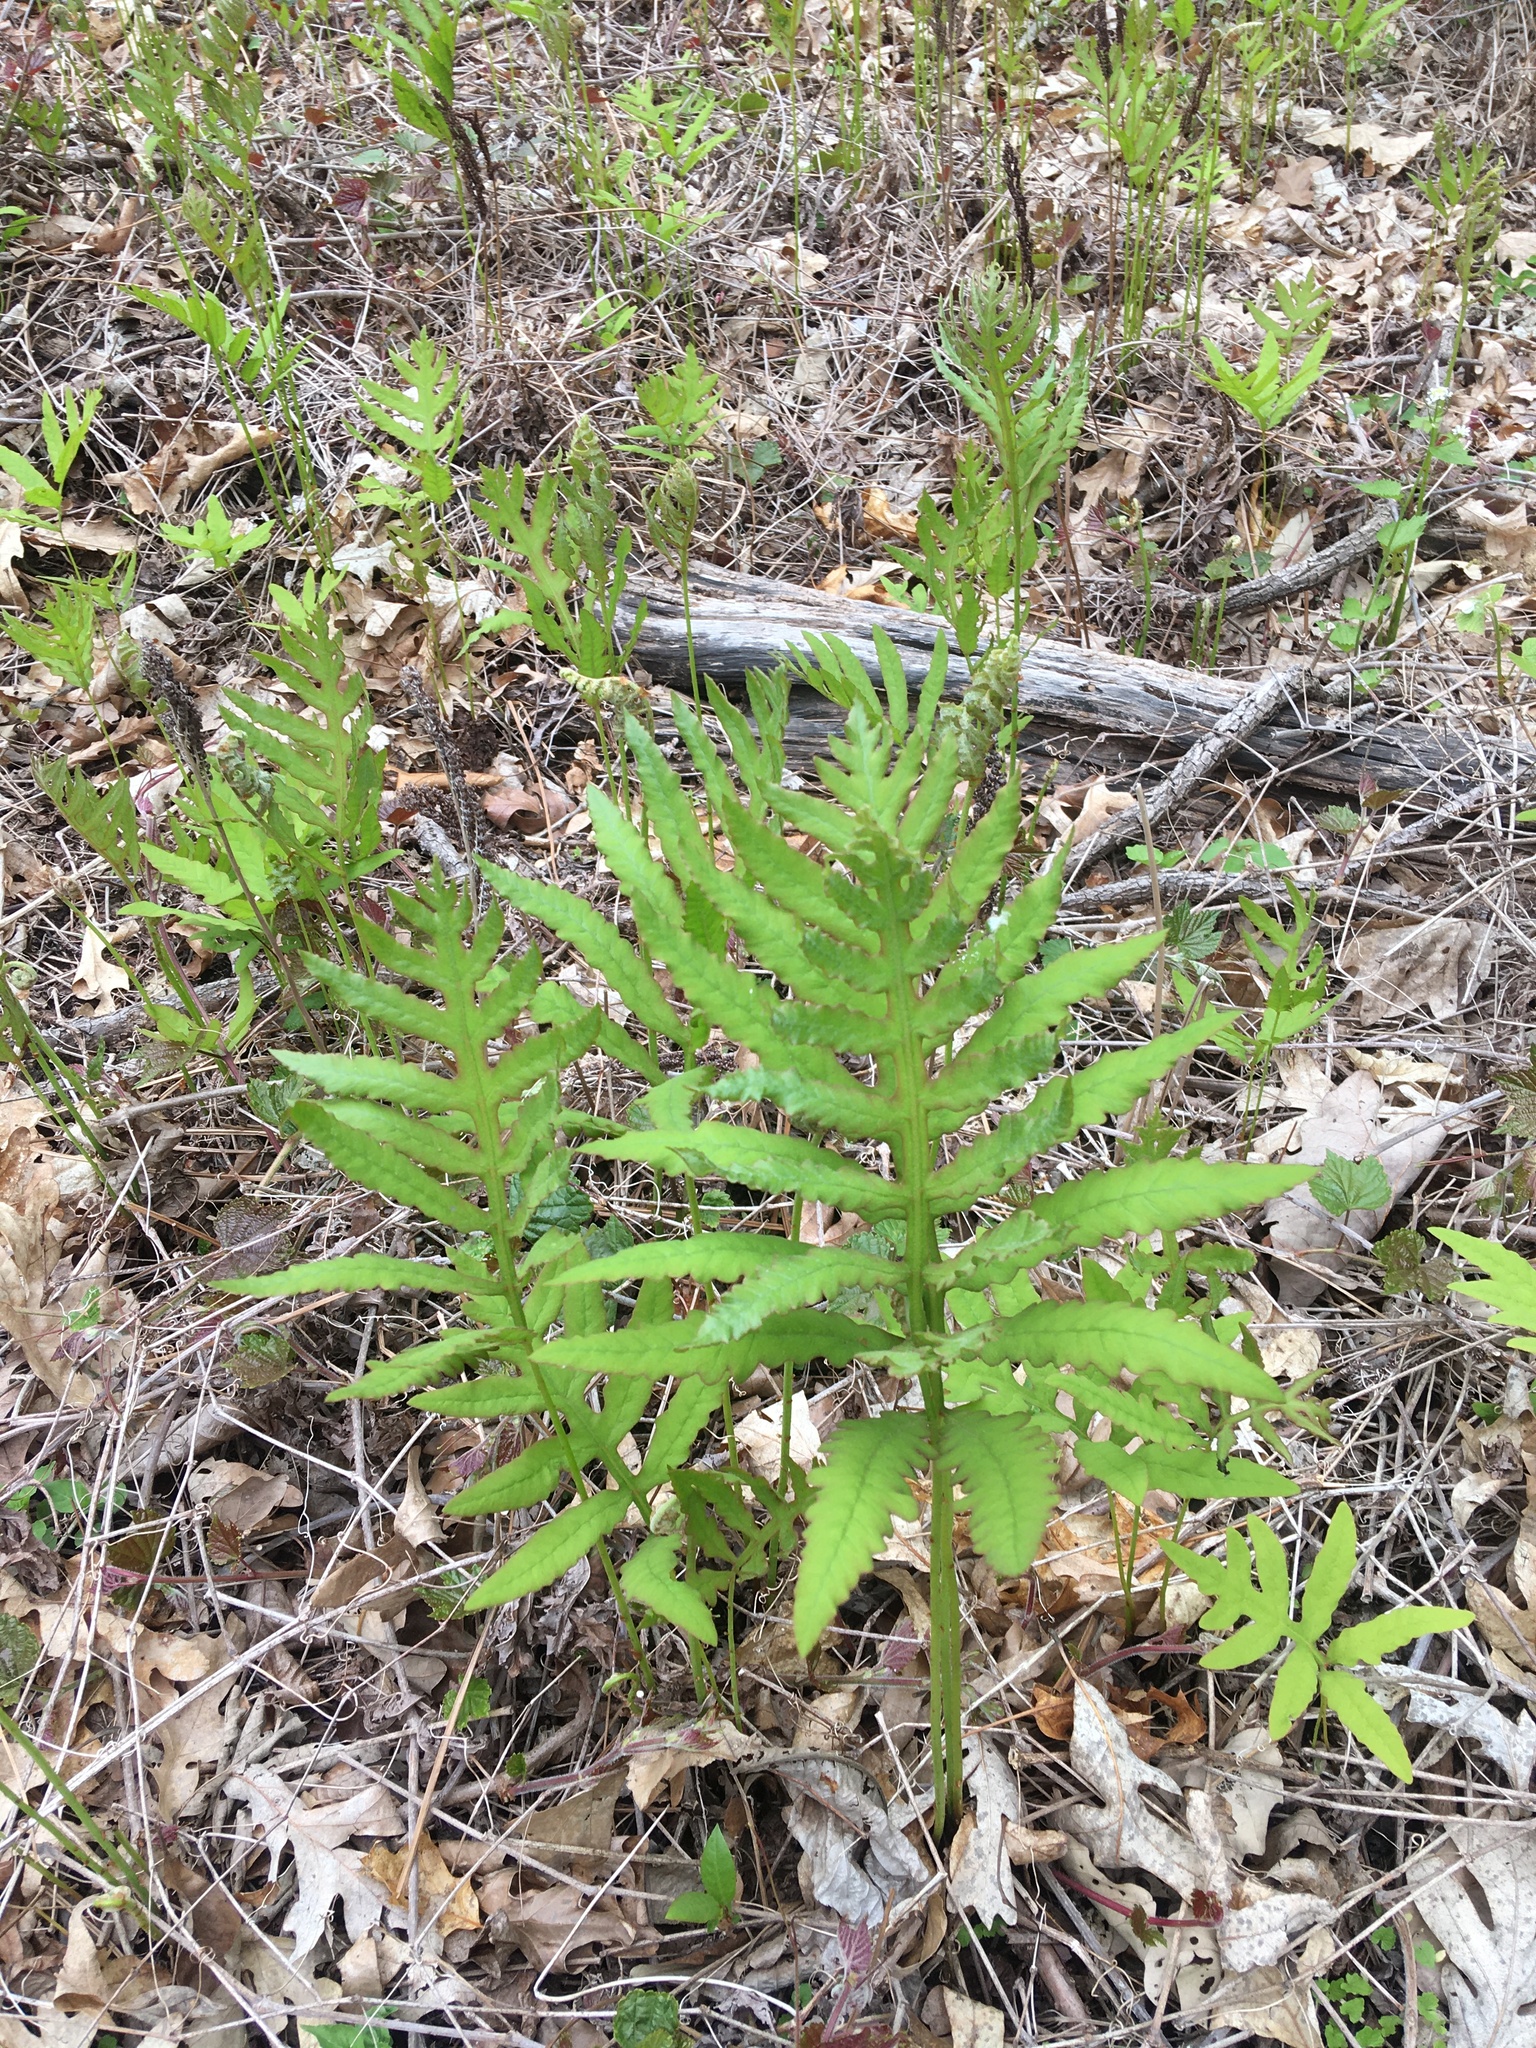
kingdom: Plantae
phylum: Tracheophyta
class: Polypodiopsida
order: Polypodiales
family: Onocleaceae
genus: Onoclea
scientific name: Onoclea sensibilis
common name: Sensitive fern
